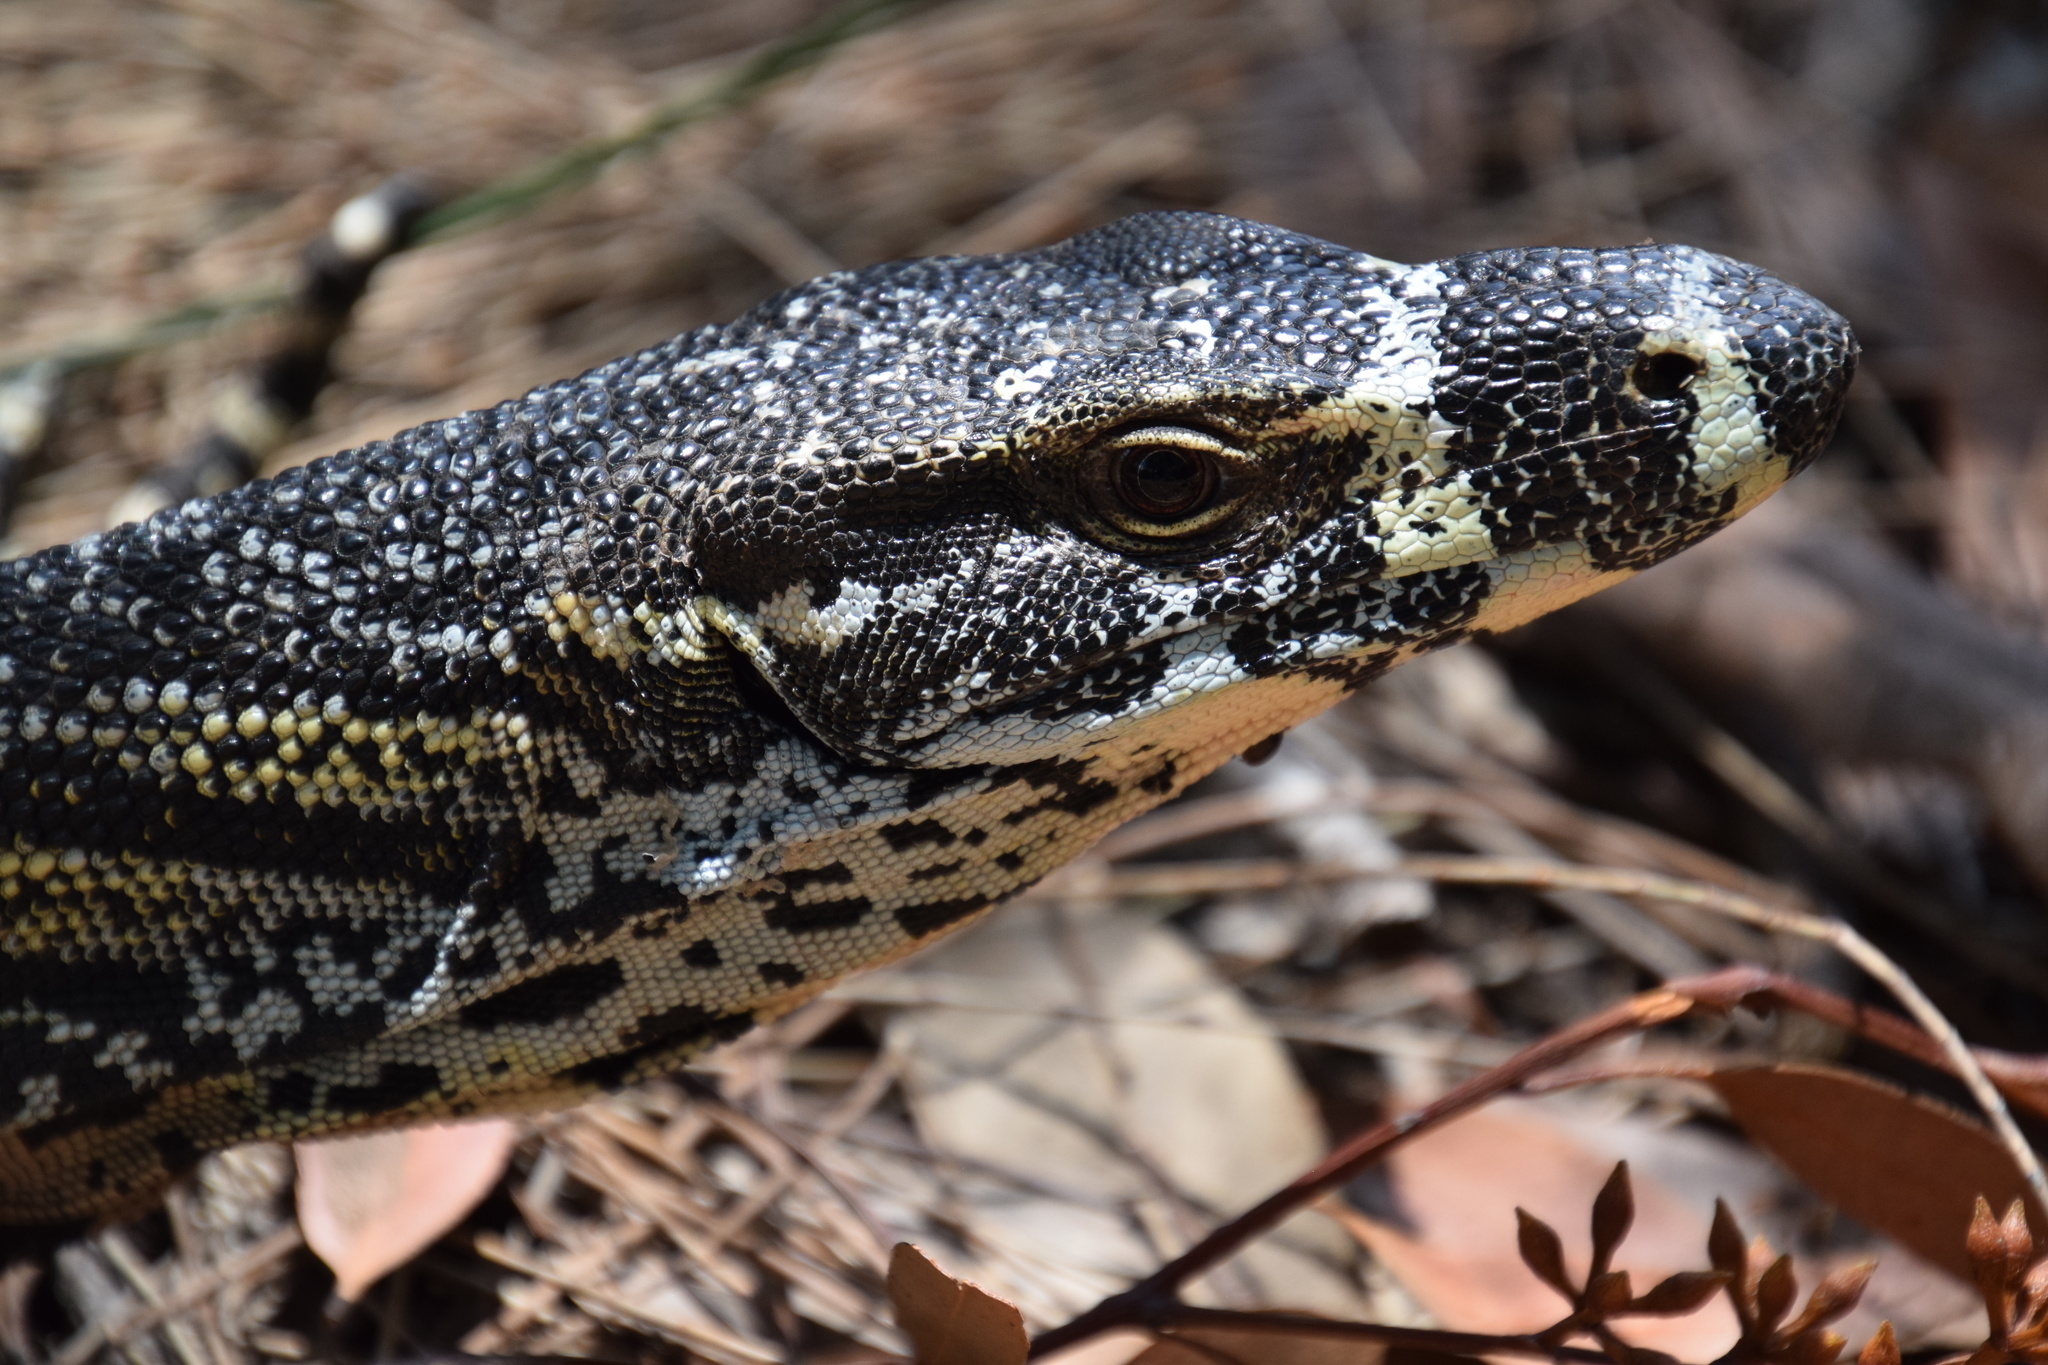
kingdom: Animalia
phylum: Chordata
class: Squamata
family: Varanidae
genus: Varanus
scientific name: Varanus varius
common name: Lace monitor
